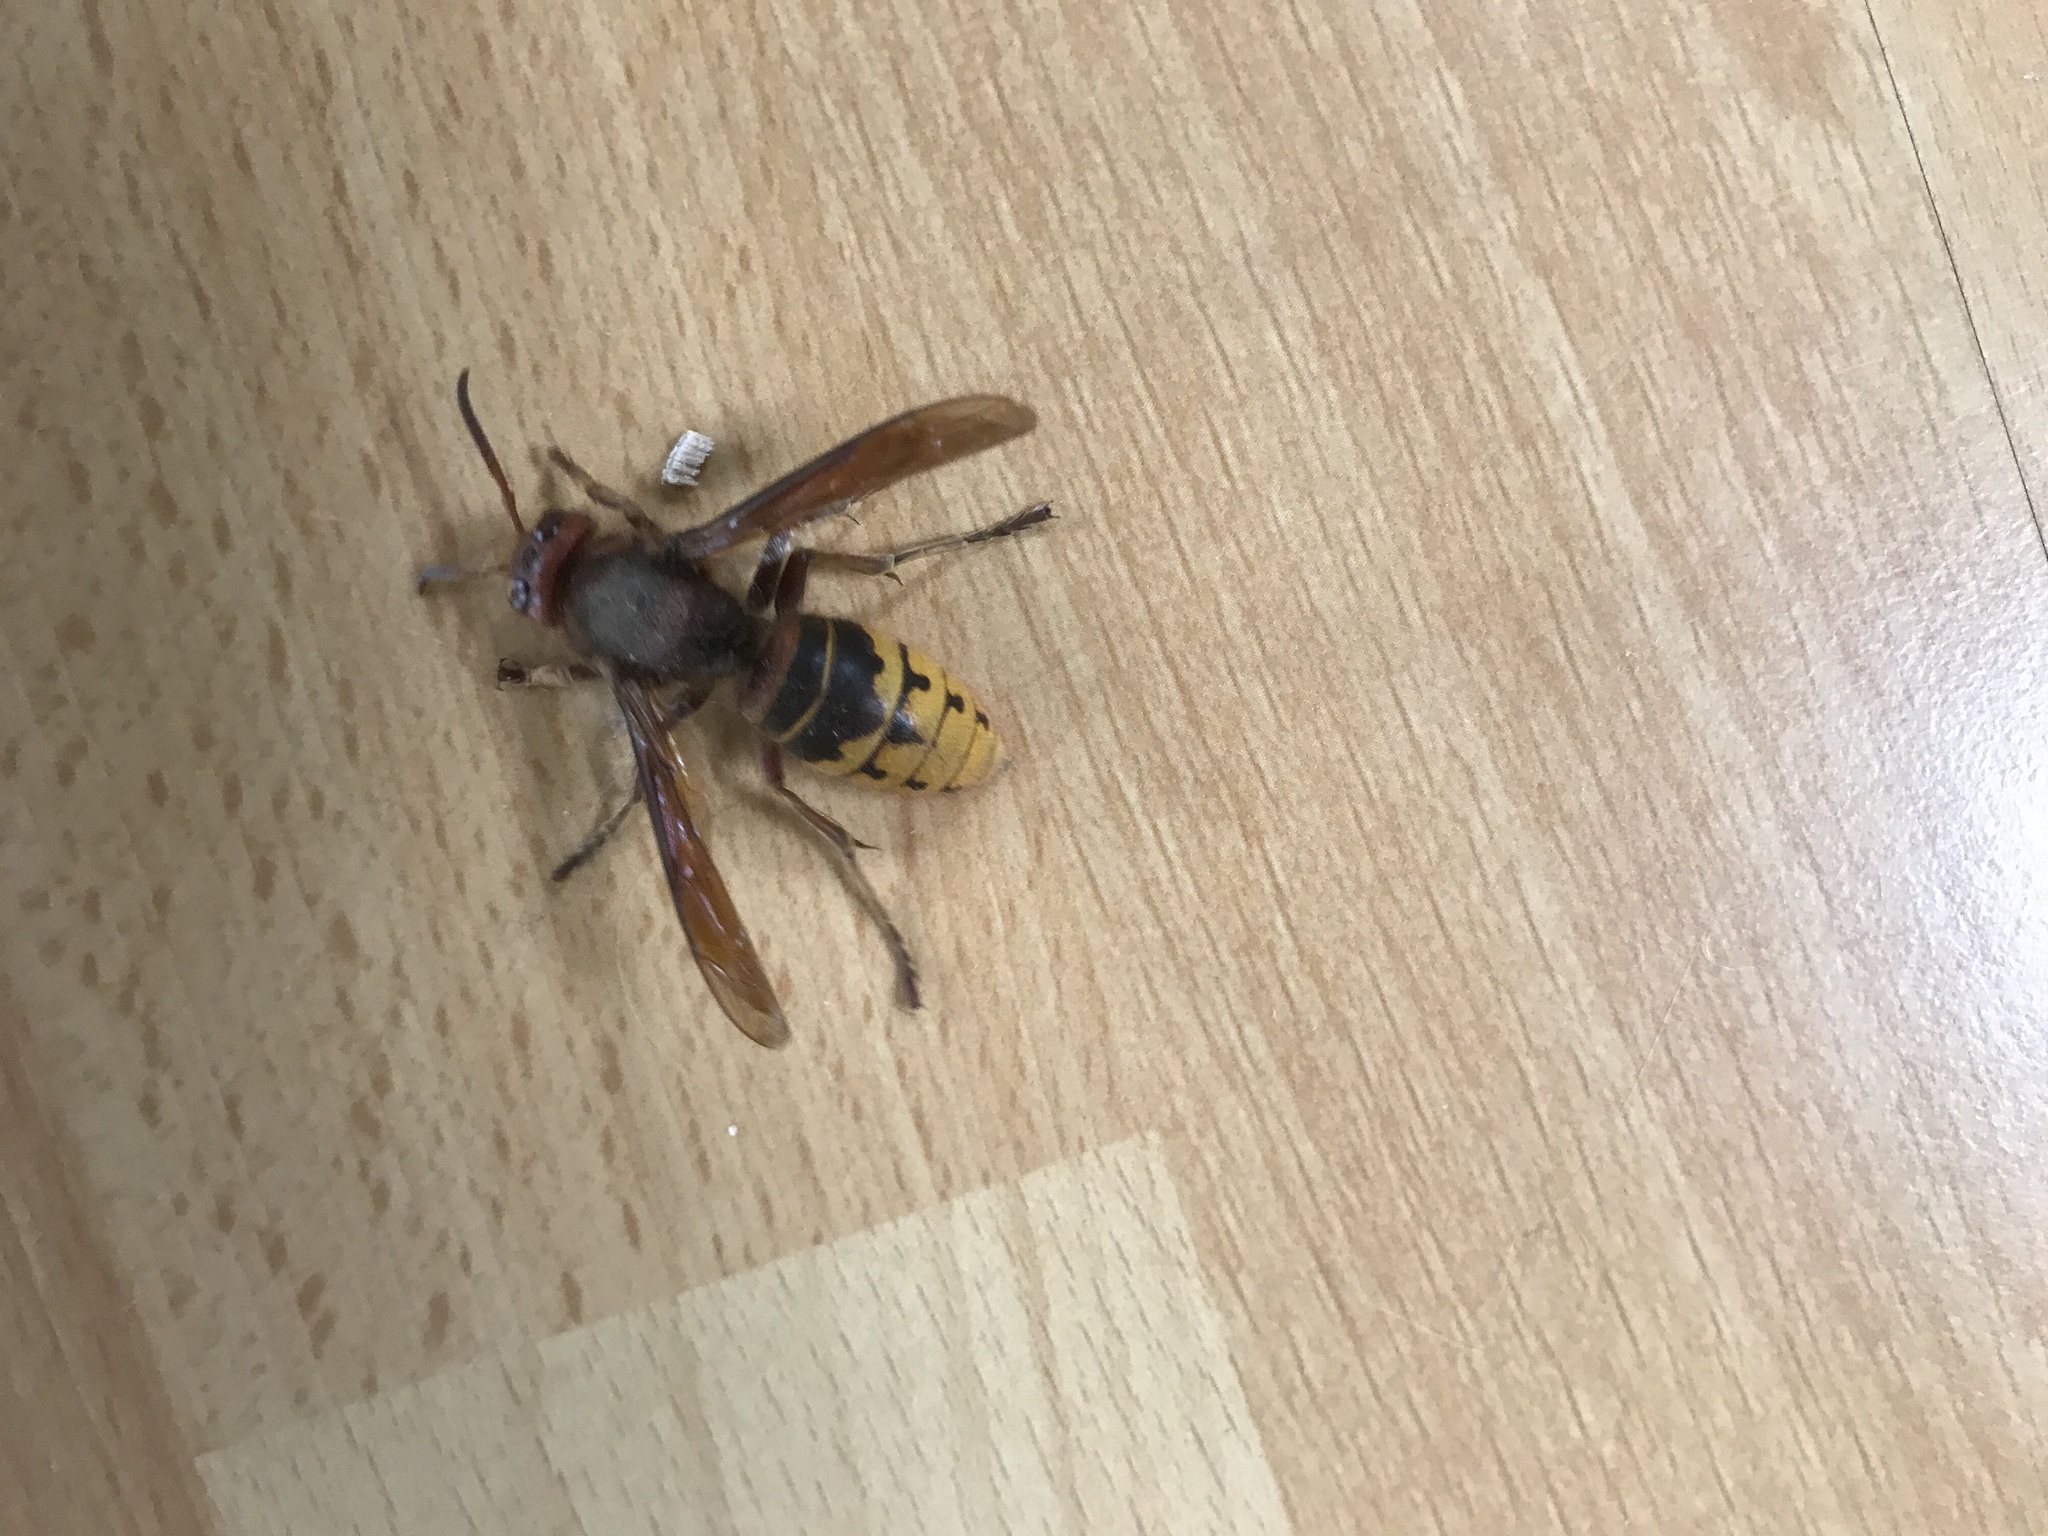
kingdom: Animalia
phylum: Arthropoda
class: Insecta
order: Hymenoptera
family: Vespidae
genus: Vespa
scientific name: Vespa crabro
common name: Hornet
